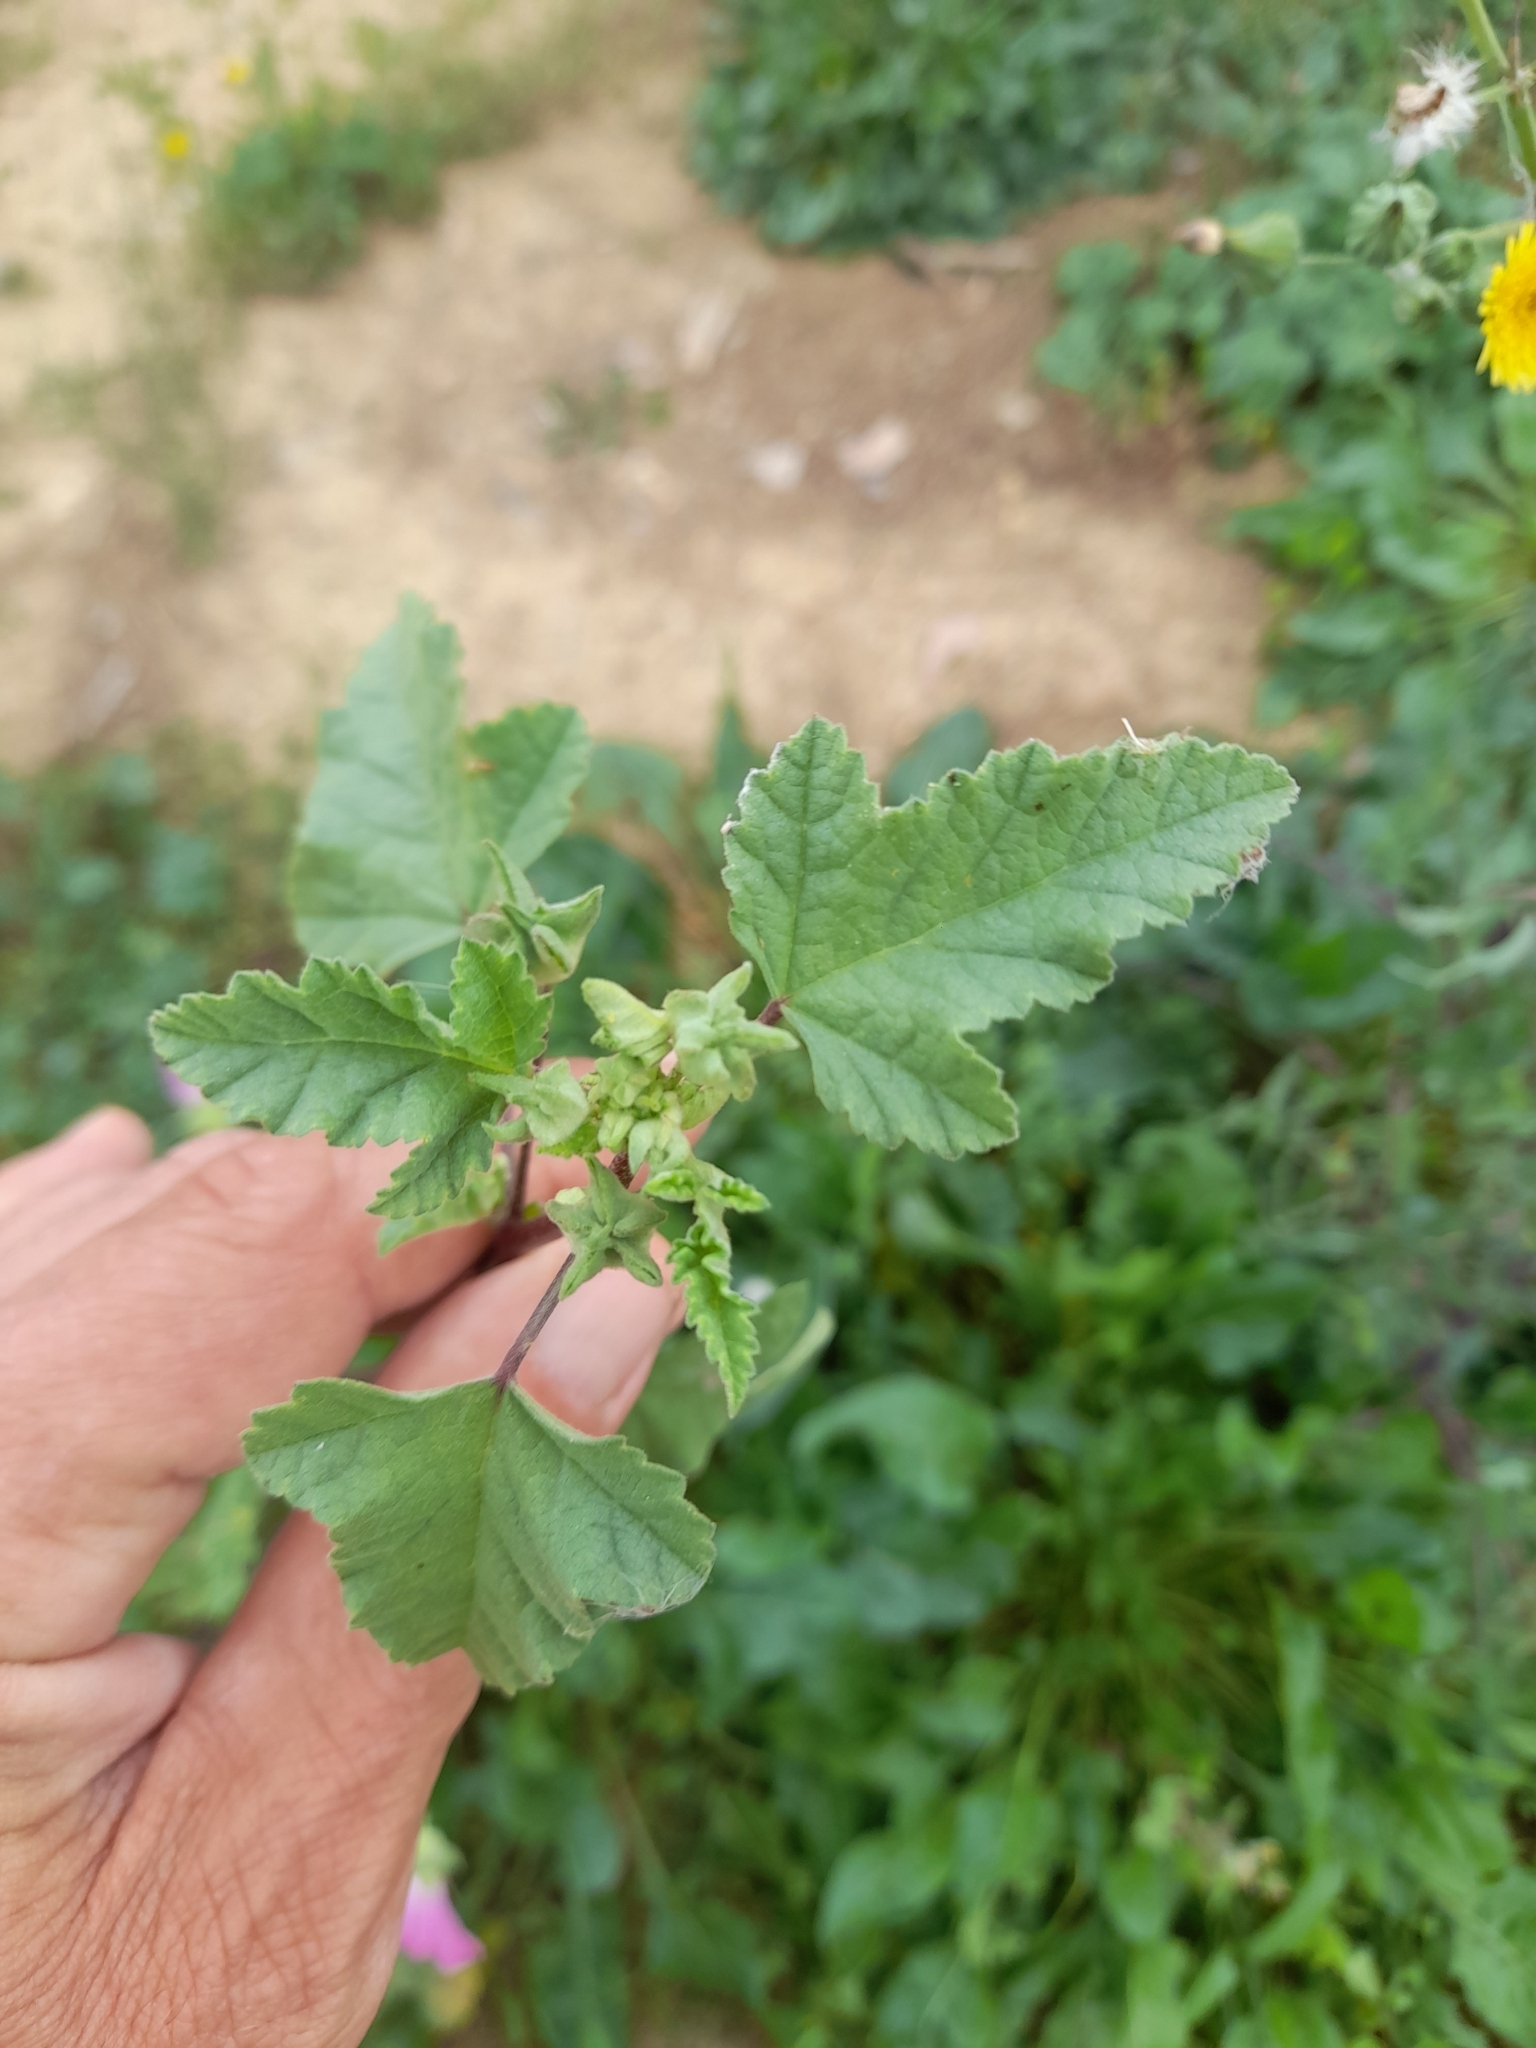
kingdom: Plantae
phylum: Tracheophyta
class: Magnoliopsida
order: Malvales
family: Malvaceae
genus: Malva
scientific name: Malva punctata
